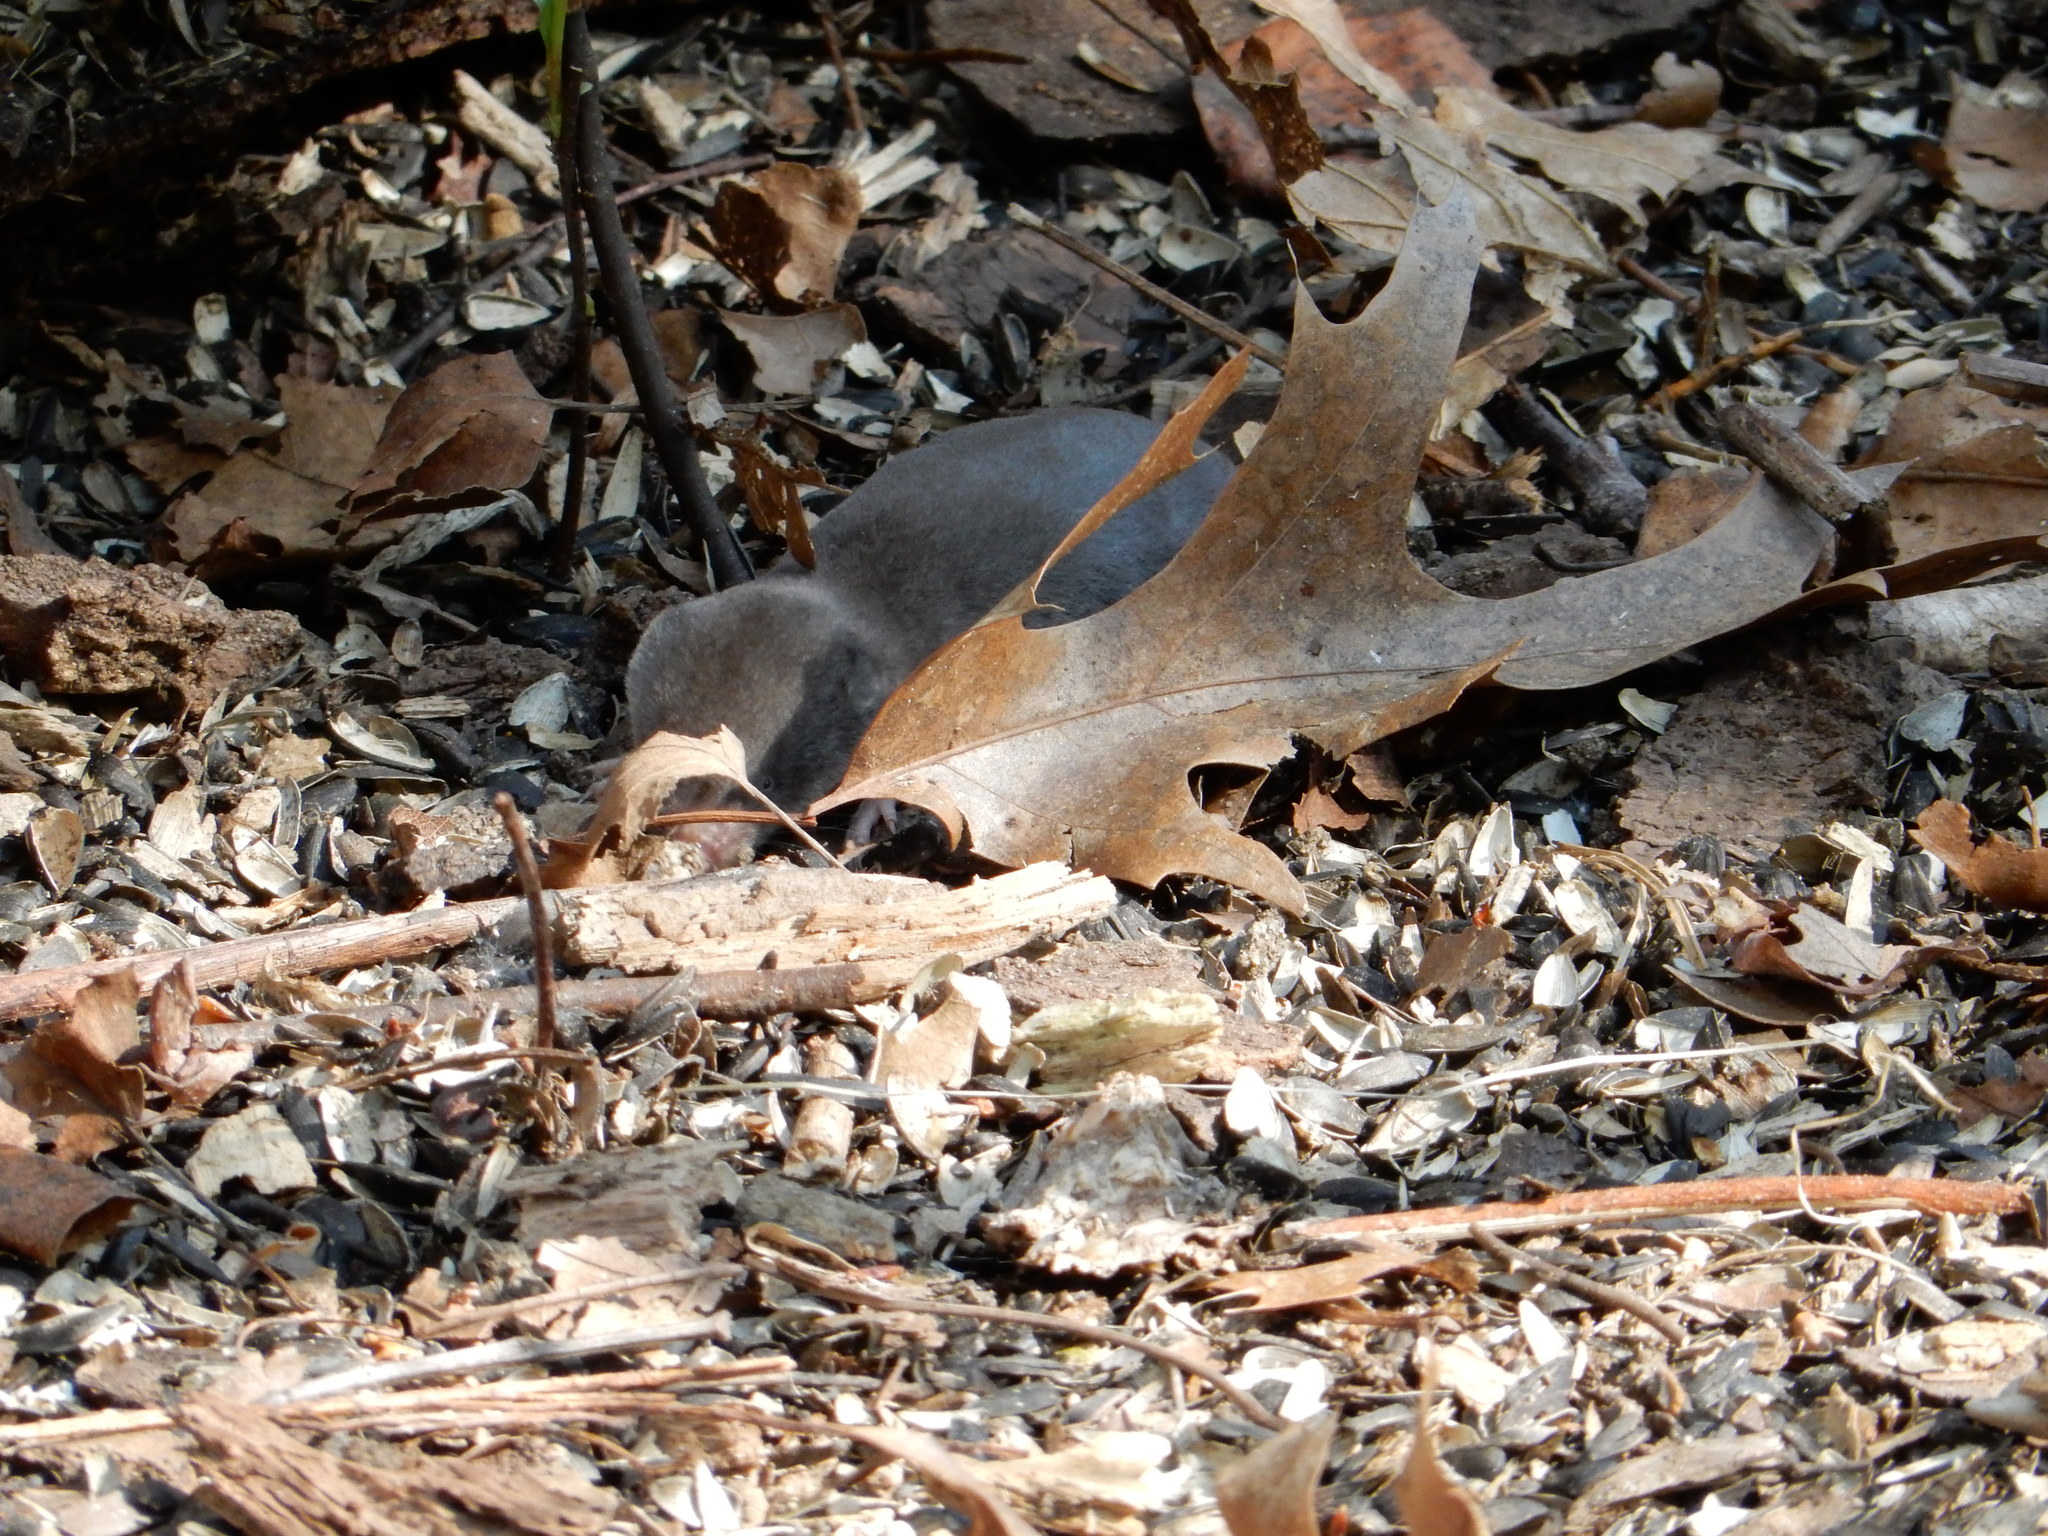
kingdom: Animalia
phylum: Chordata
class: Mammalia
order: Soricomorpha
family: Soricidae
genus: Blarina
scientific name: Blarina brevicauda
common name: Northern short-tailed shrew
